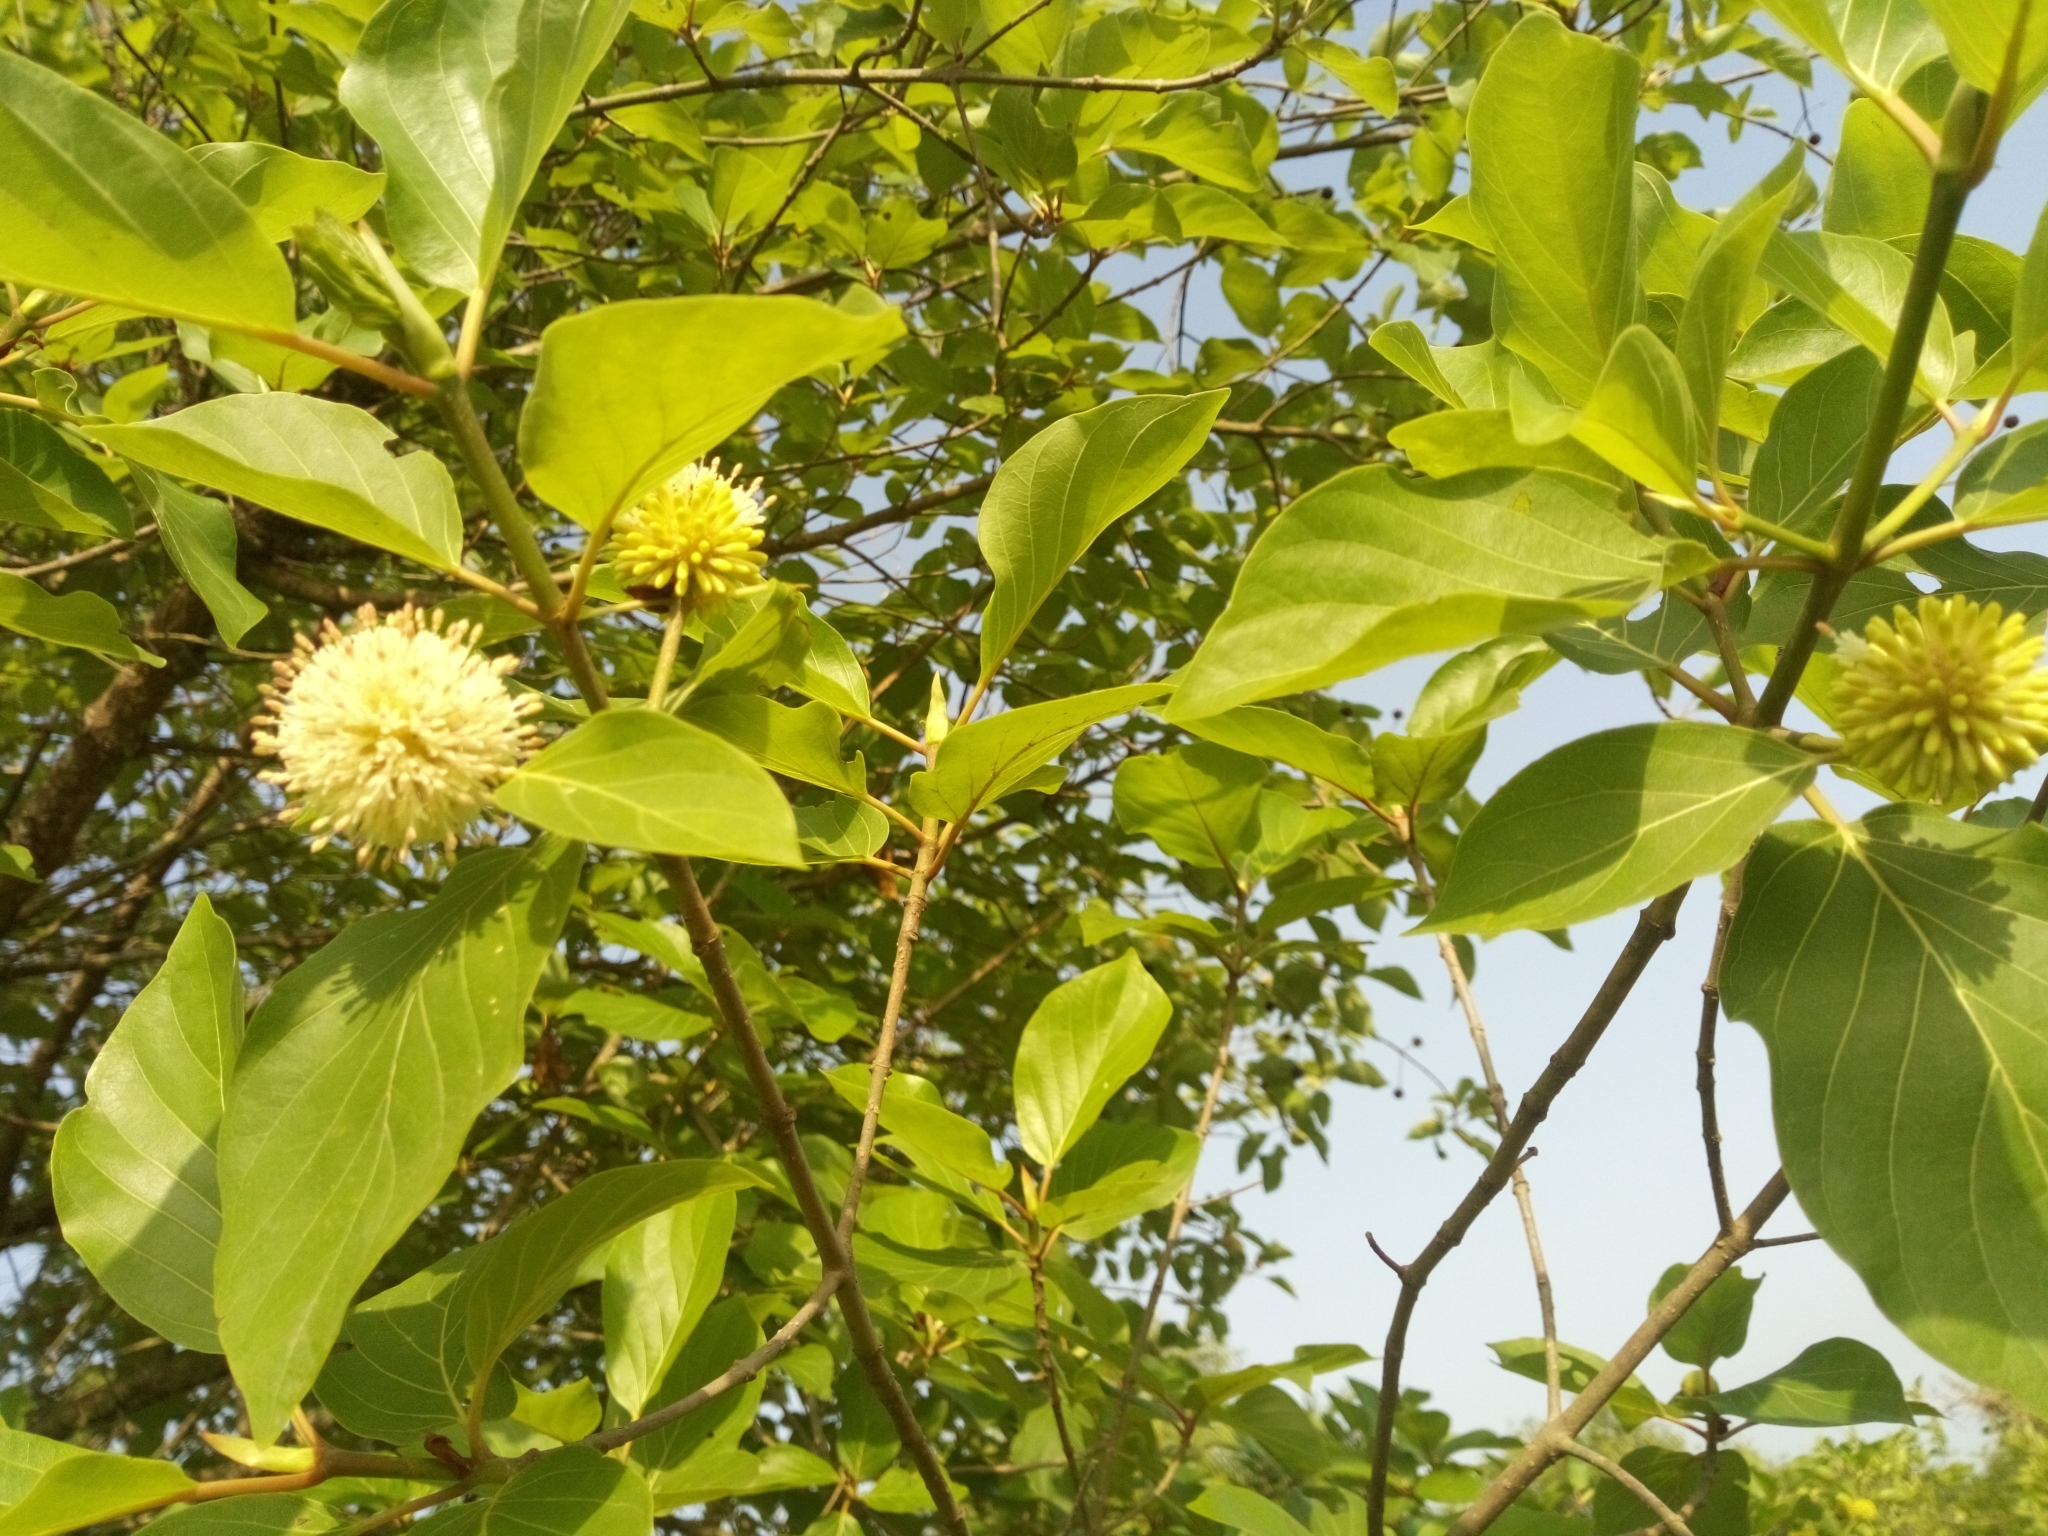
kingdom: Plantae
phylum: Tracheophyta
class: Magnoliopsida
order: Gentianales
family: Rubiaceae
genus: Mitragyna
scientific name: Mitragyna inermis
